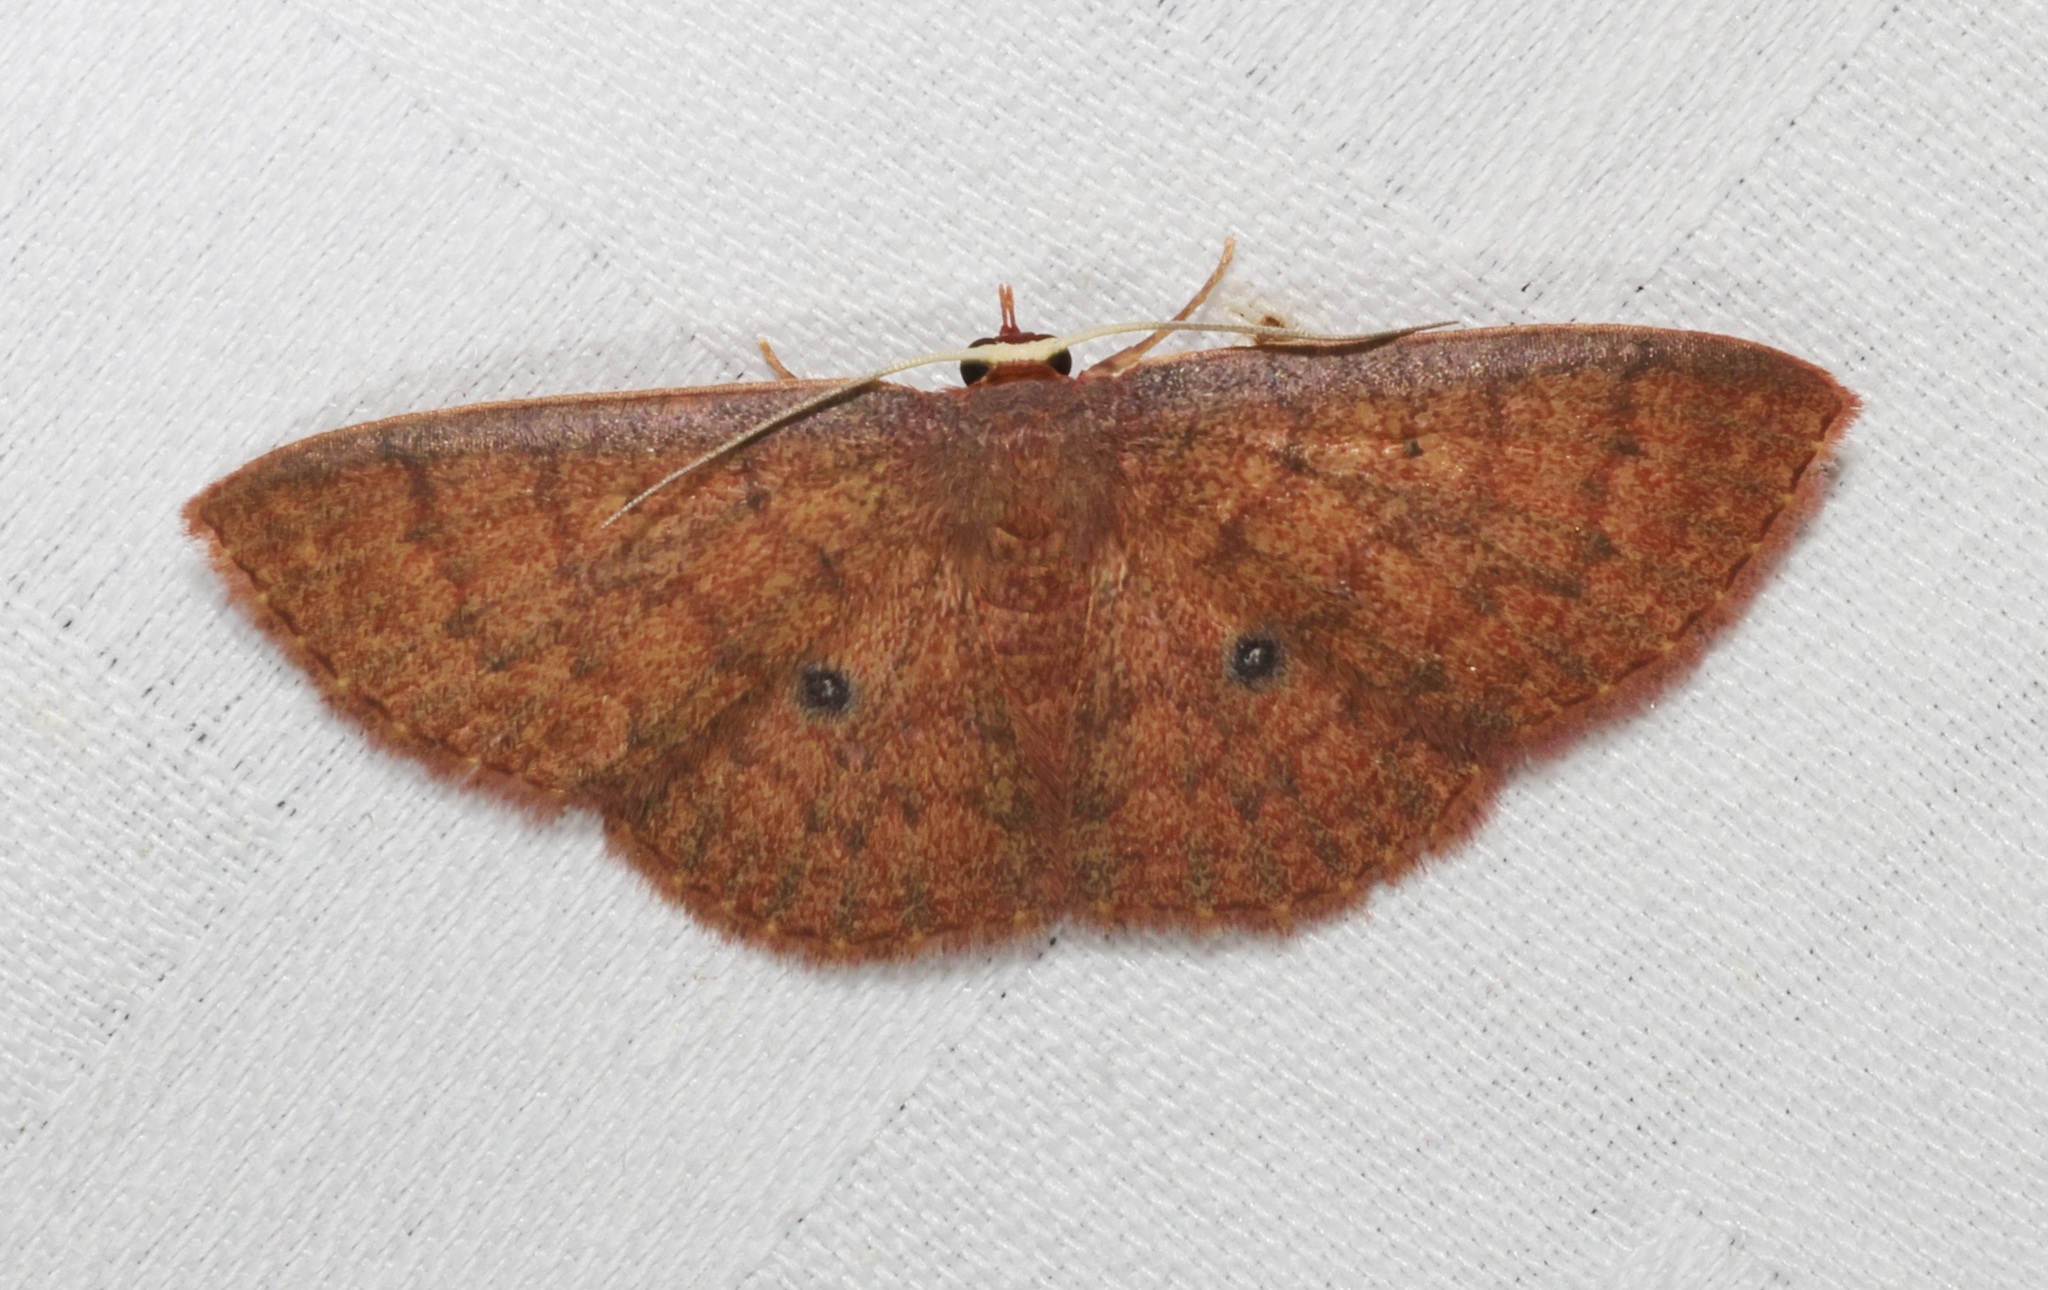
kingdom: Animalia
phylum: Arthropoda
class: Insecta
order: Lepidoptera
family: Geometridae
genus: Organopoda
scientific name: Organopoda carnearia
